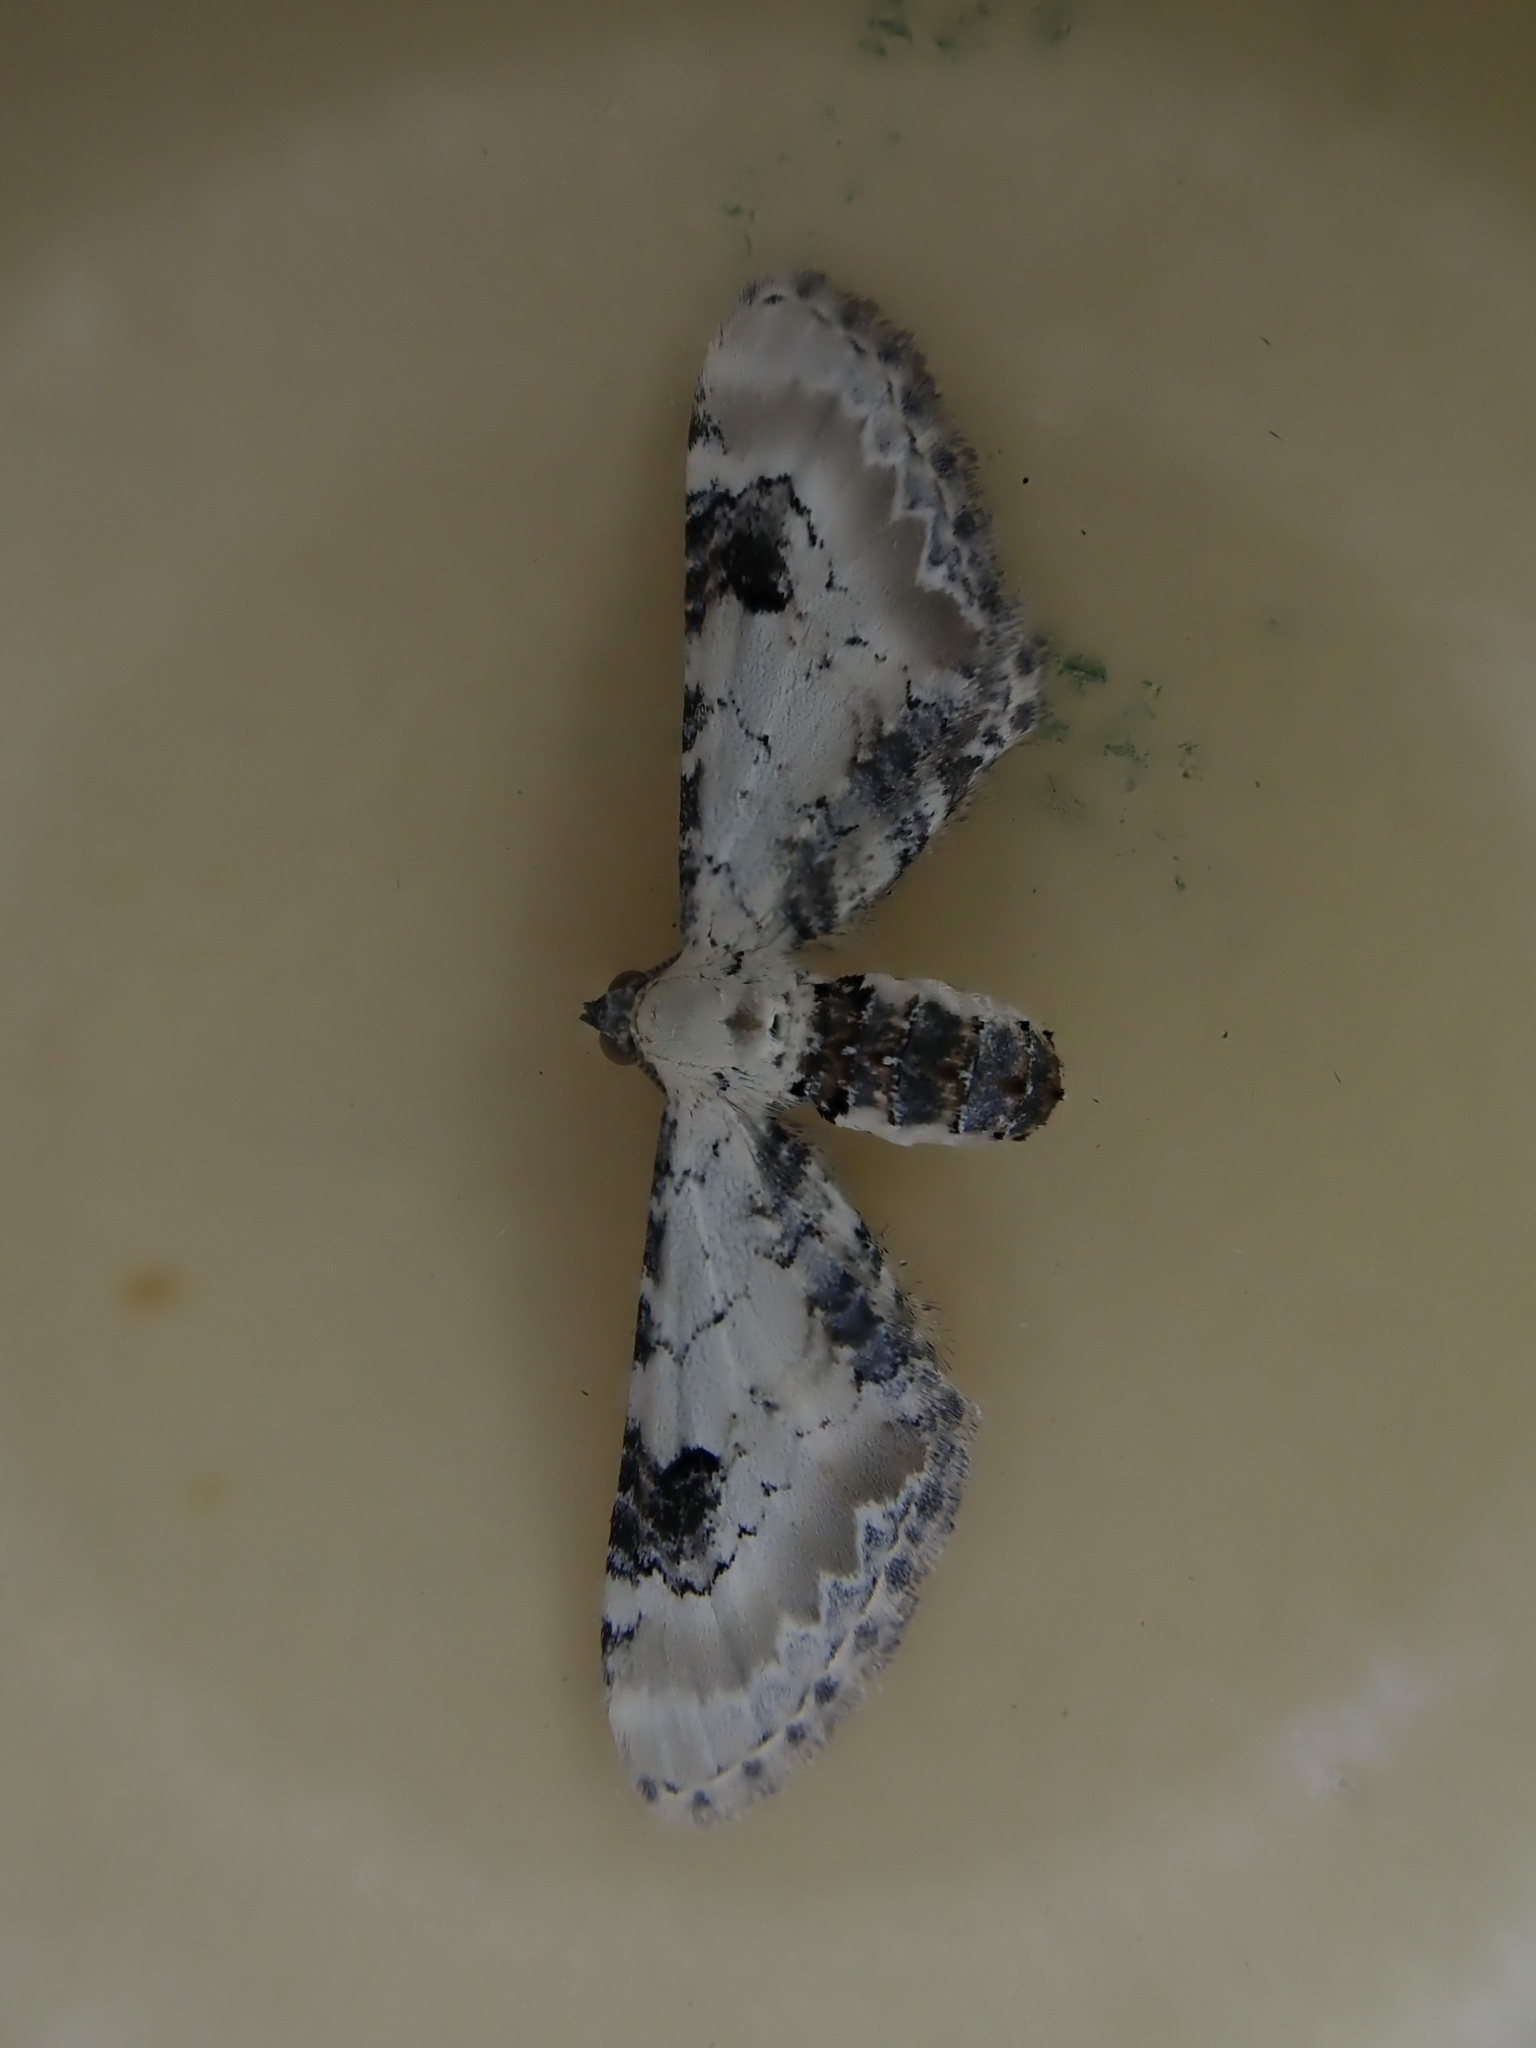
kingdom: Animalia
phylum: Arthropoda
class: Insecta
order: Lepidoptera
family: Geometridae
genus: Eupithecia
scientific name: Eupithecia centaureata
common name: Lime-speck pug
